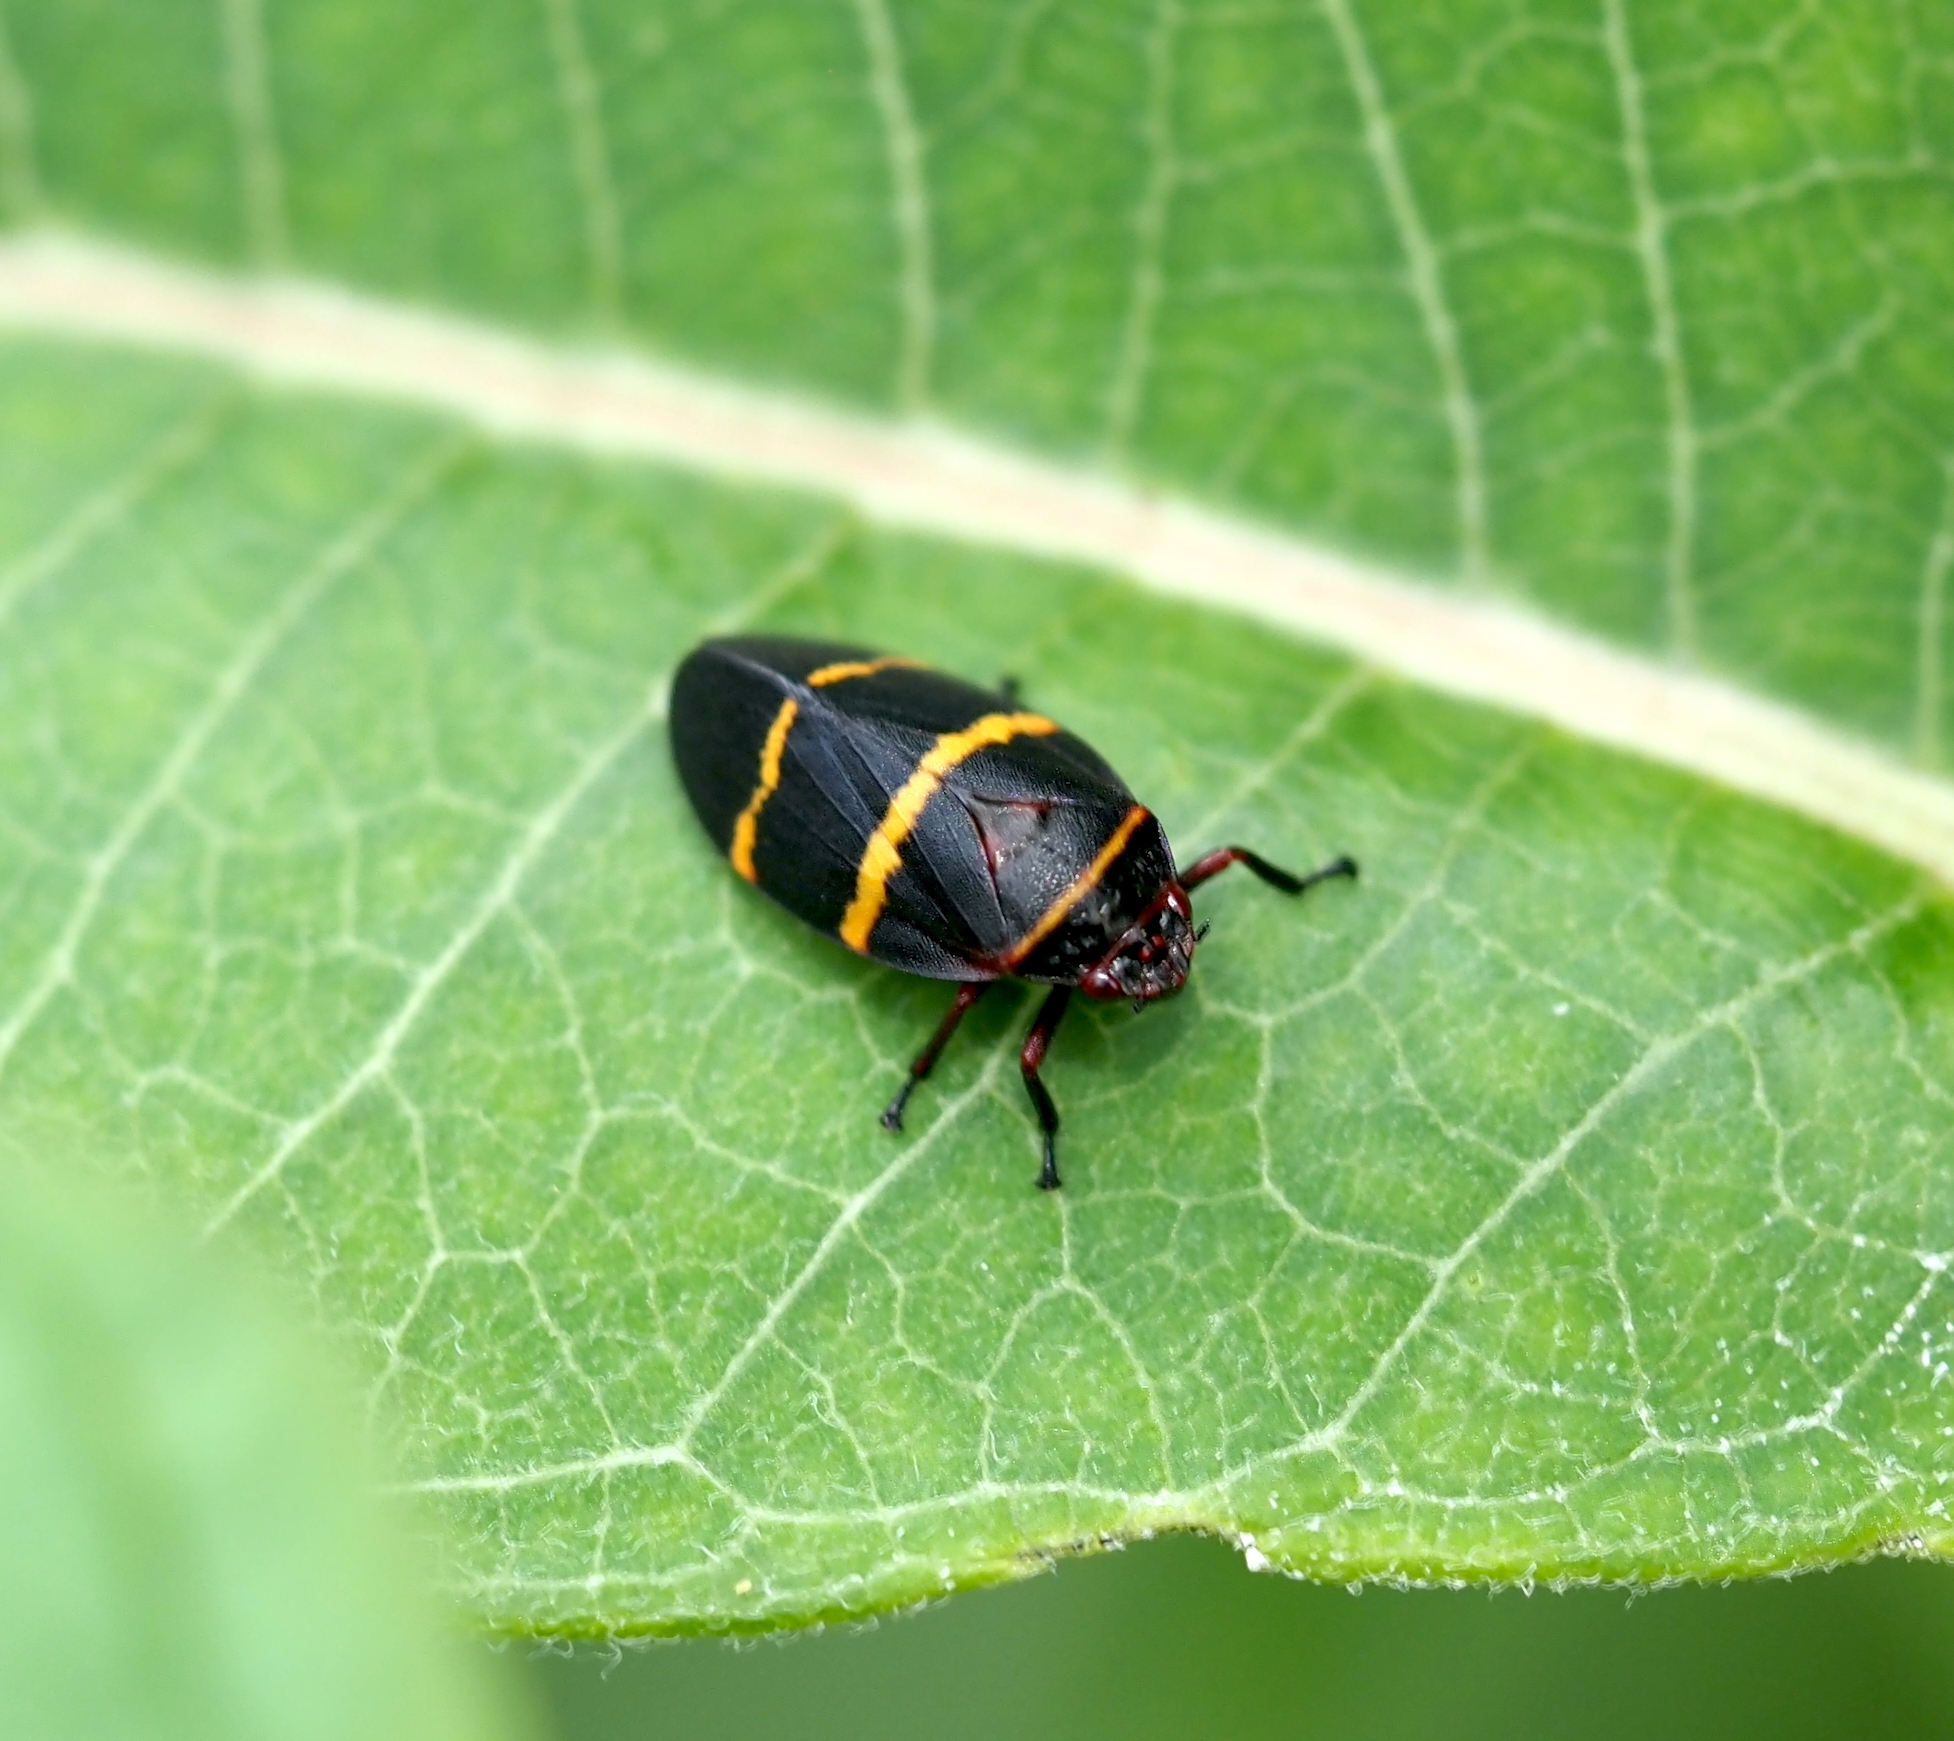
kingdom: Animalia
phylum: Arthropoda
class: Insecta
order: Hemiptera
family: Cercopidae
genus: Prosapia
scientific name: Prosapia bicincta
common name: Twolined spittlebug
